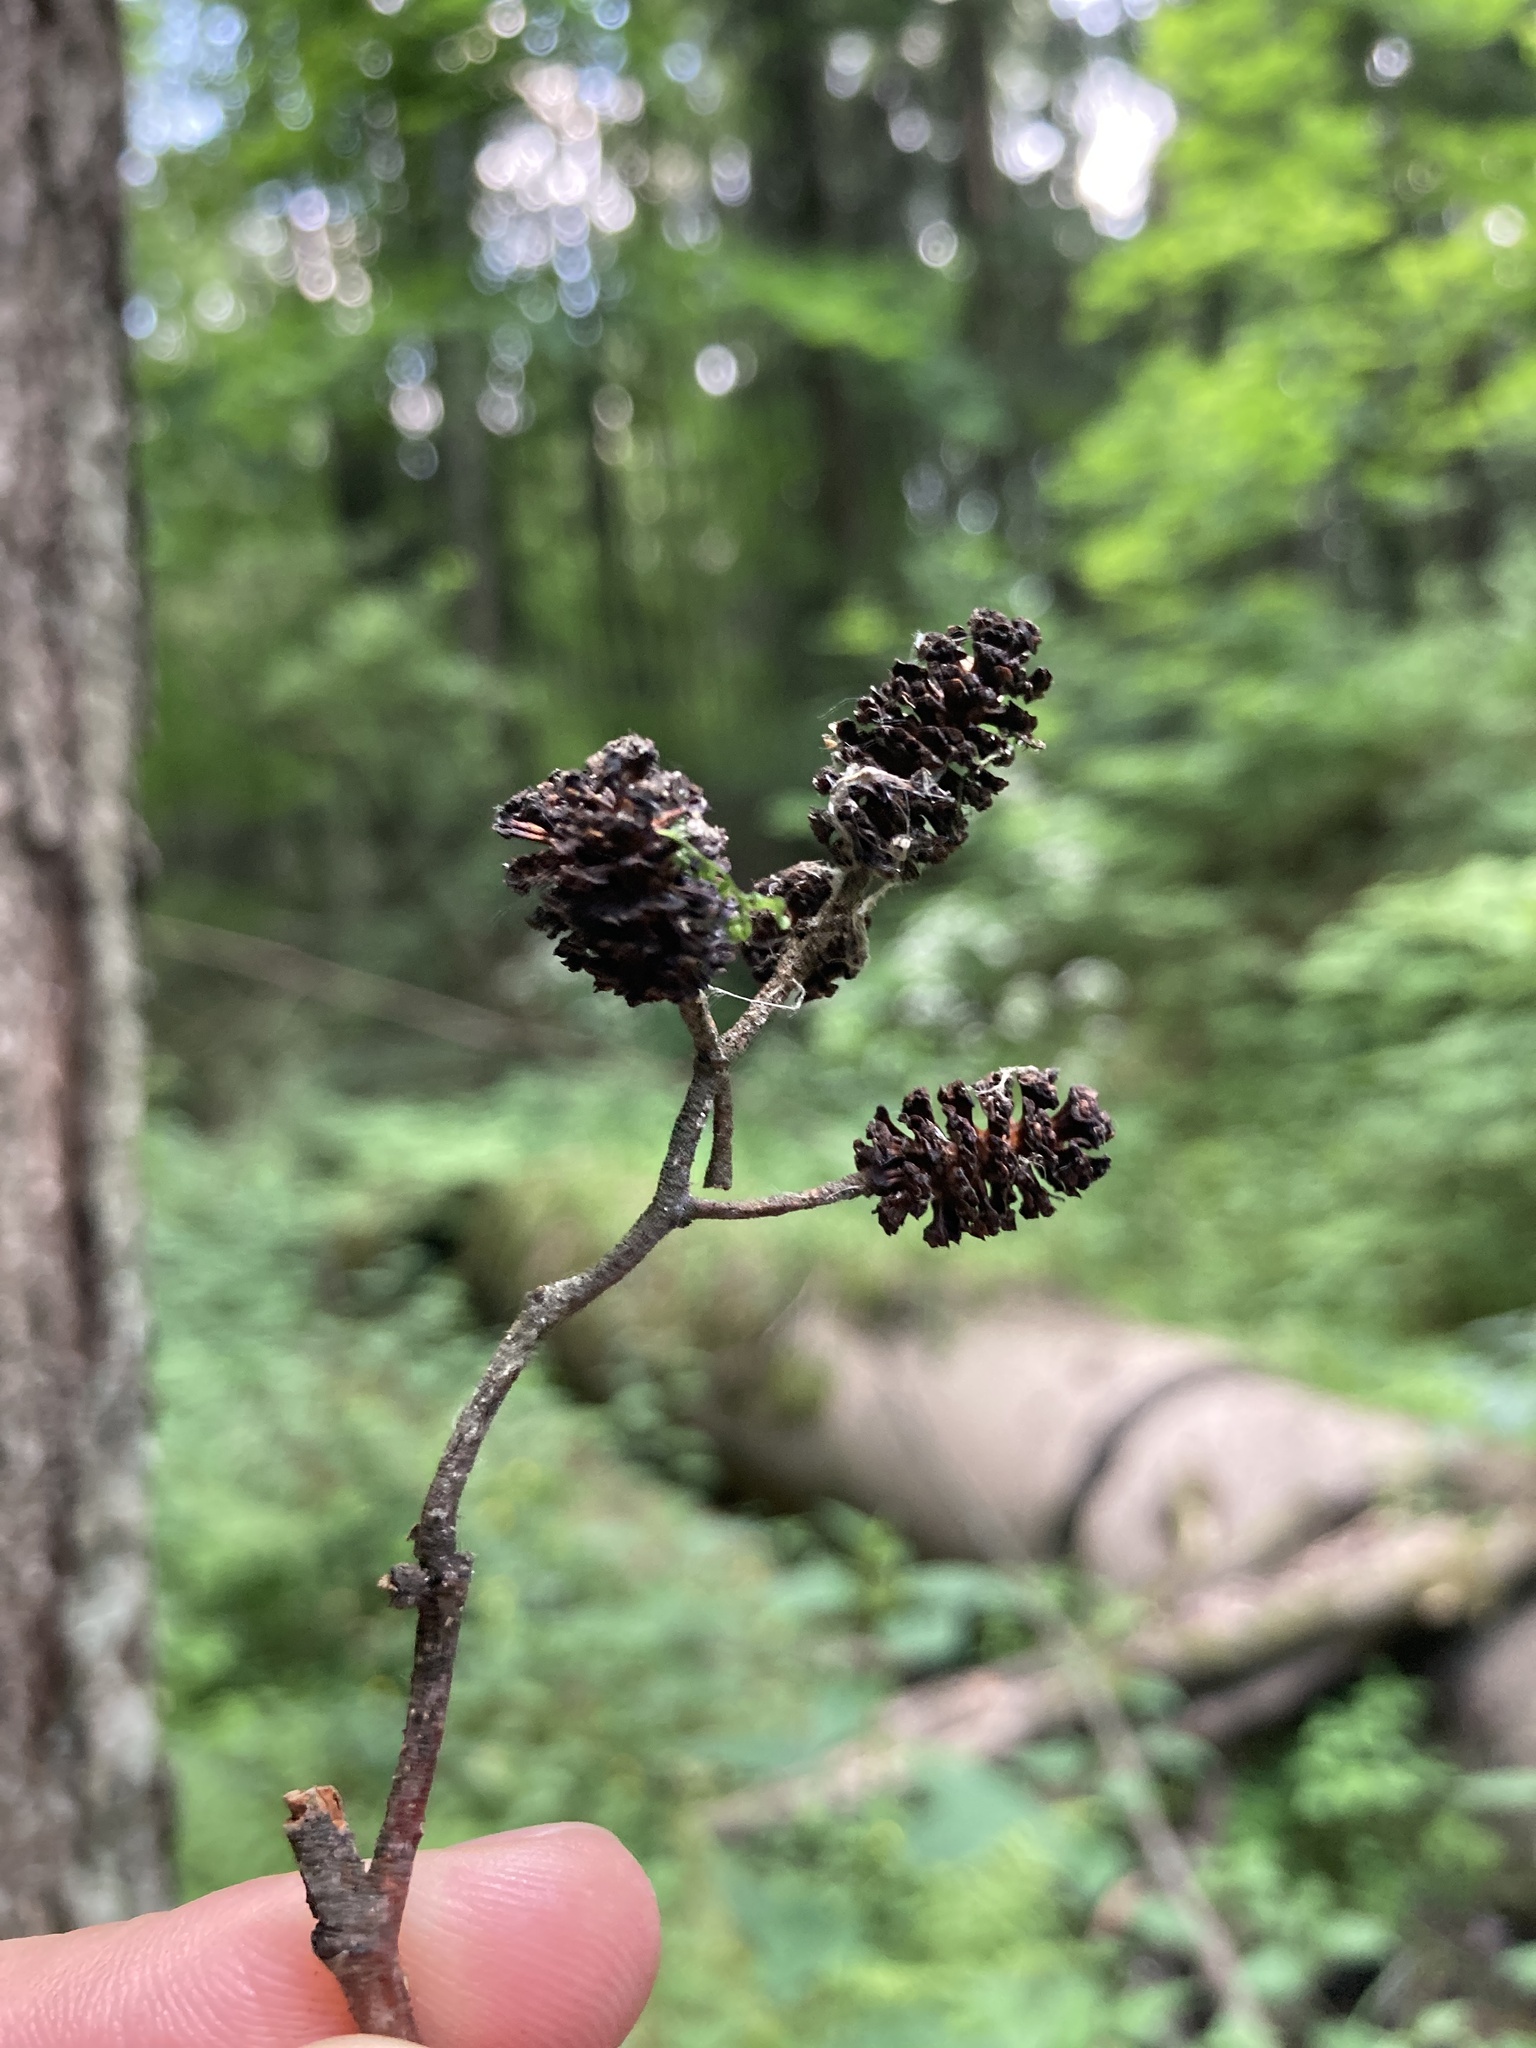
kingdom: Plantae
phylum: Tracheophyta
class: Magnoliopsida
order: Fagales
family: Betulaceae
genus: Alnus
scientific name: Alnus glutinosa
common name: Black alder
